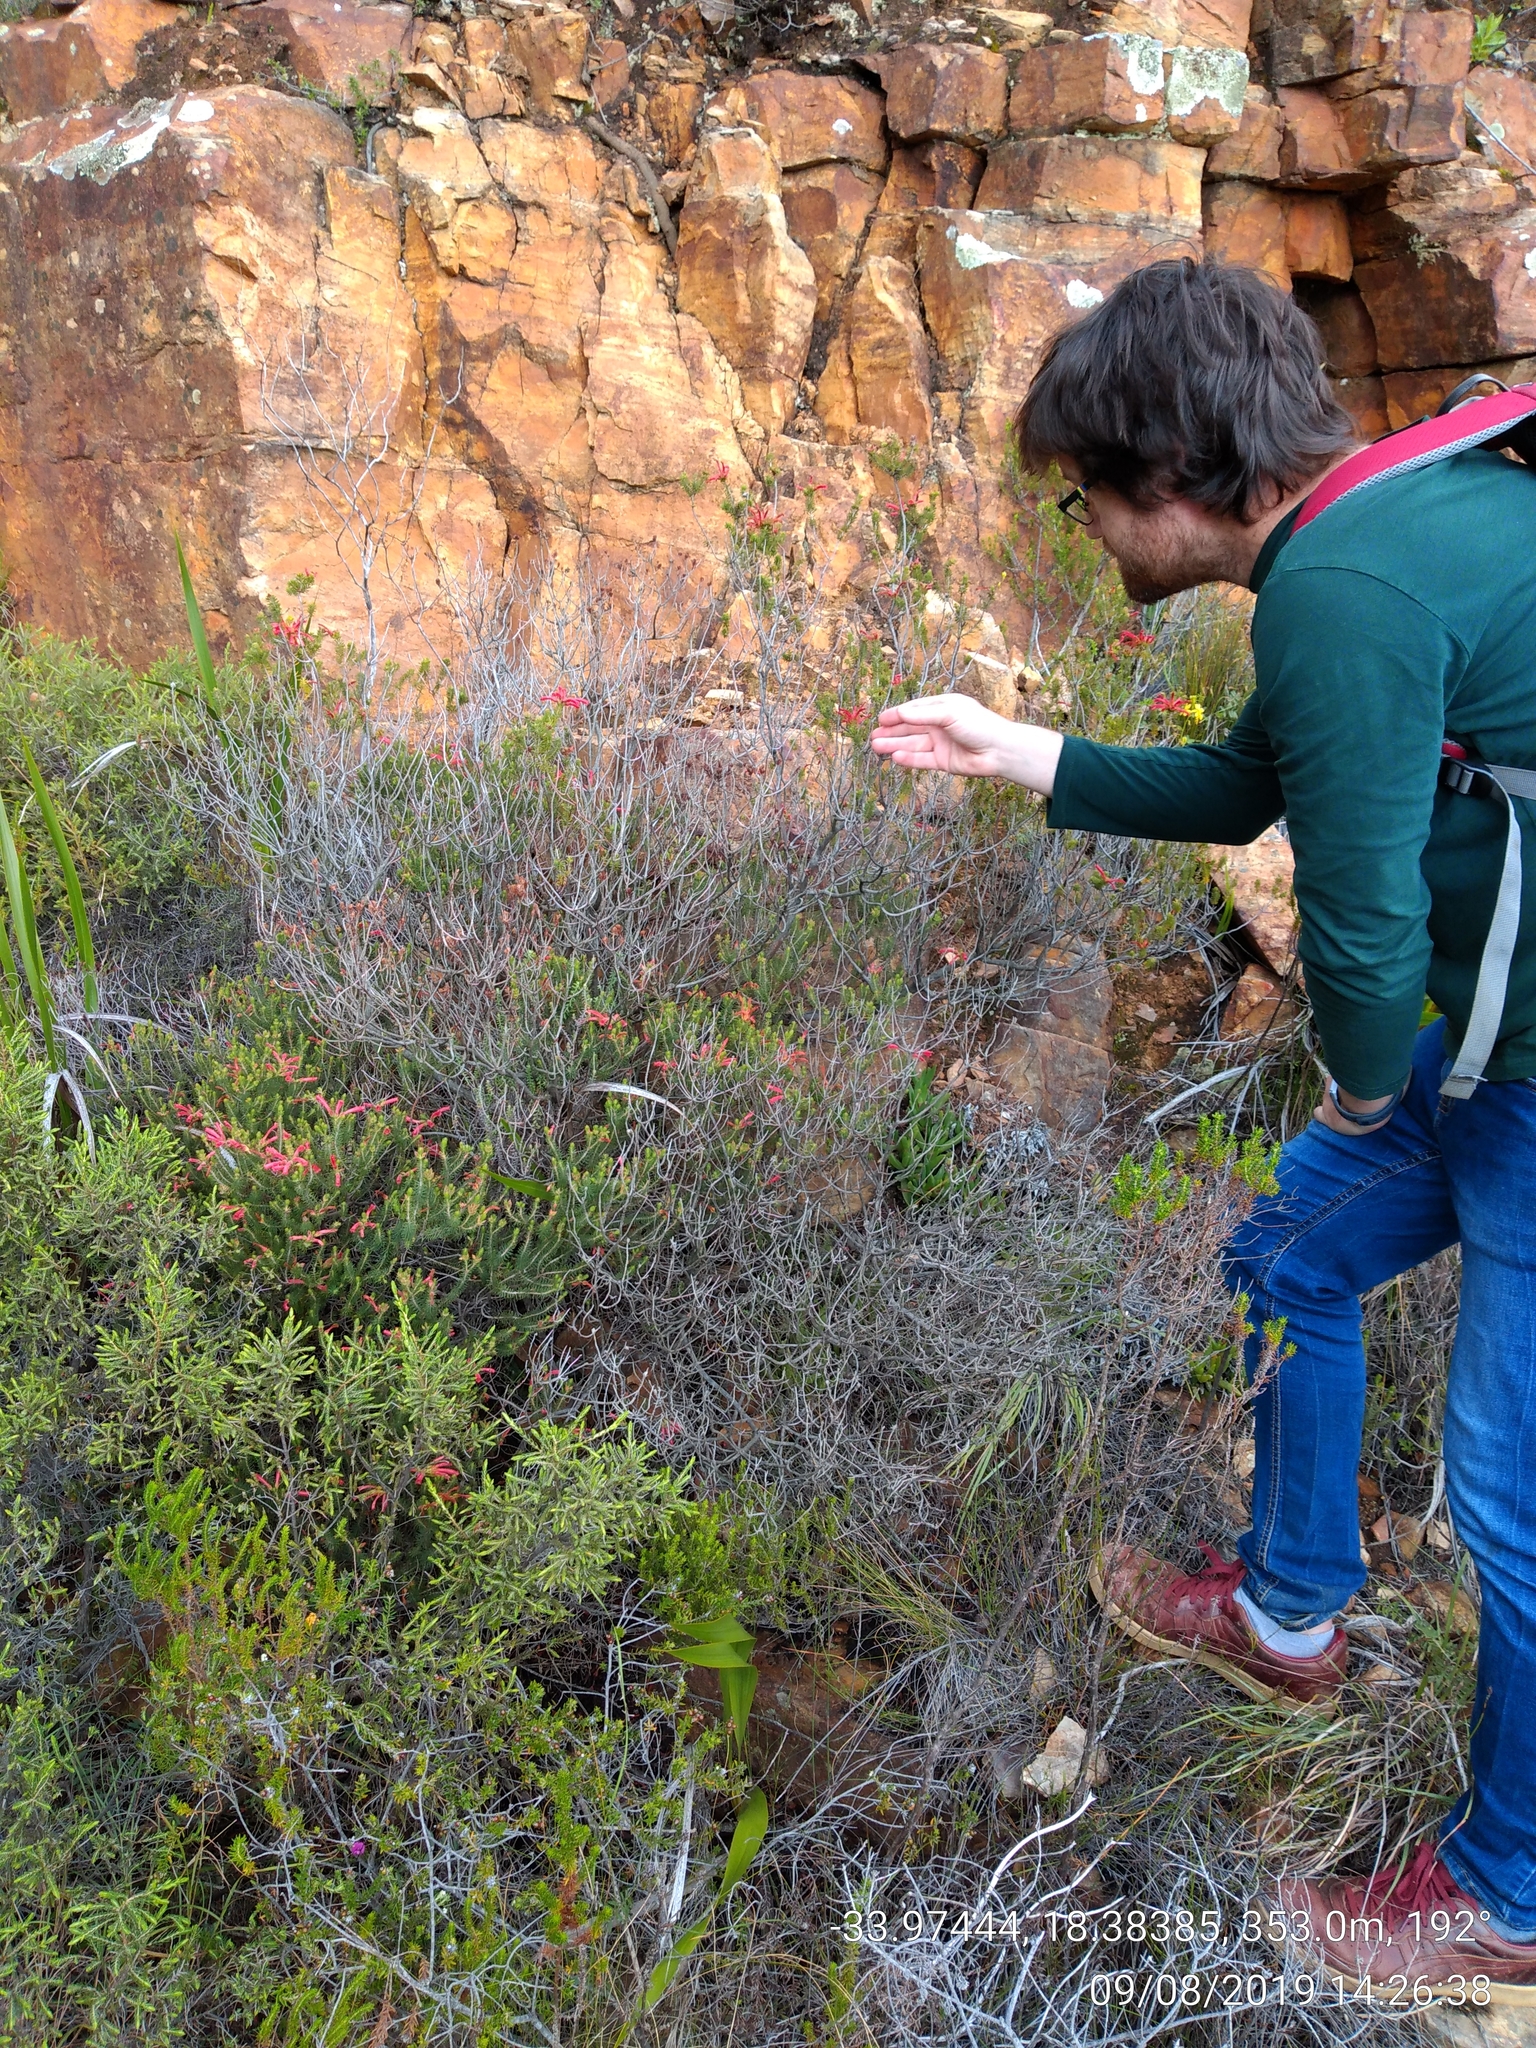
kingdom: Plantae
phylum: Tracheophyta
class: Magnoliopsida
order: Ericales
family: Ericaceae
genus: Erica
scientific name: Erica abietina
